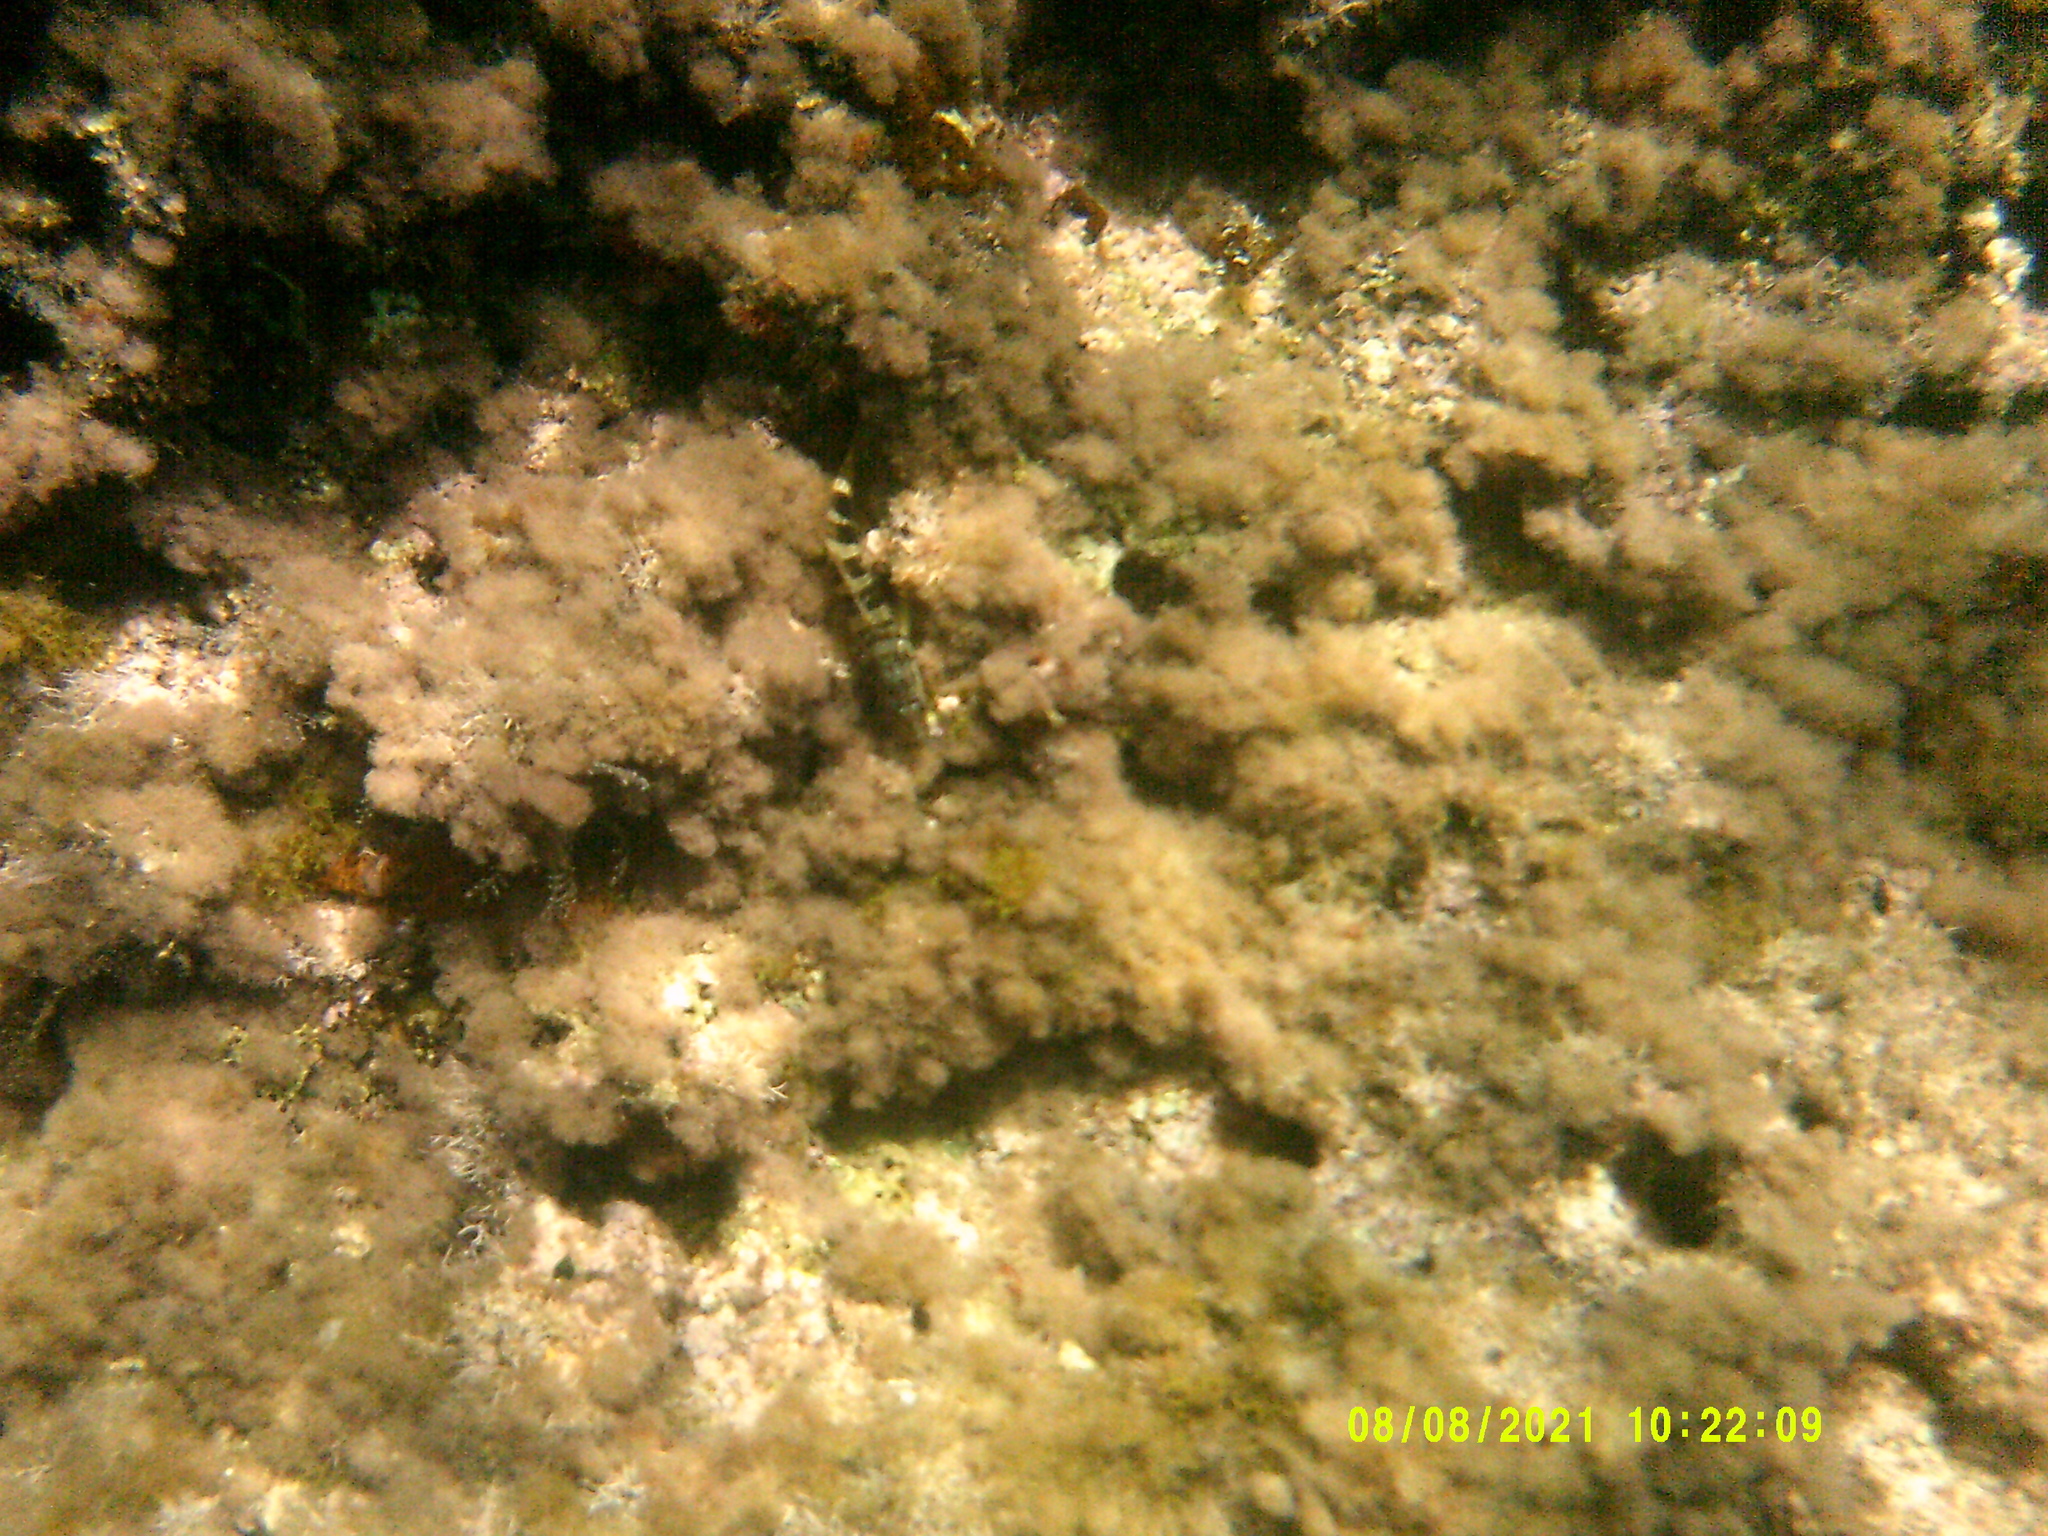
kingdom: Animalia
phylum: Chordata
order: Perciformes
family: Serranidae
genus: Serranus
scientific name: Serranus scriba
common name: Painted comber
